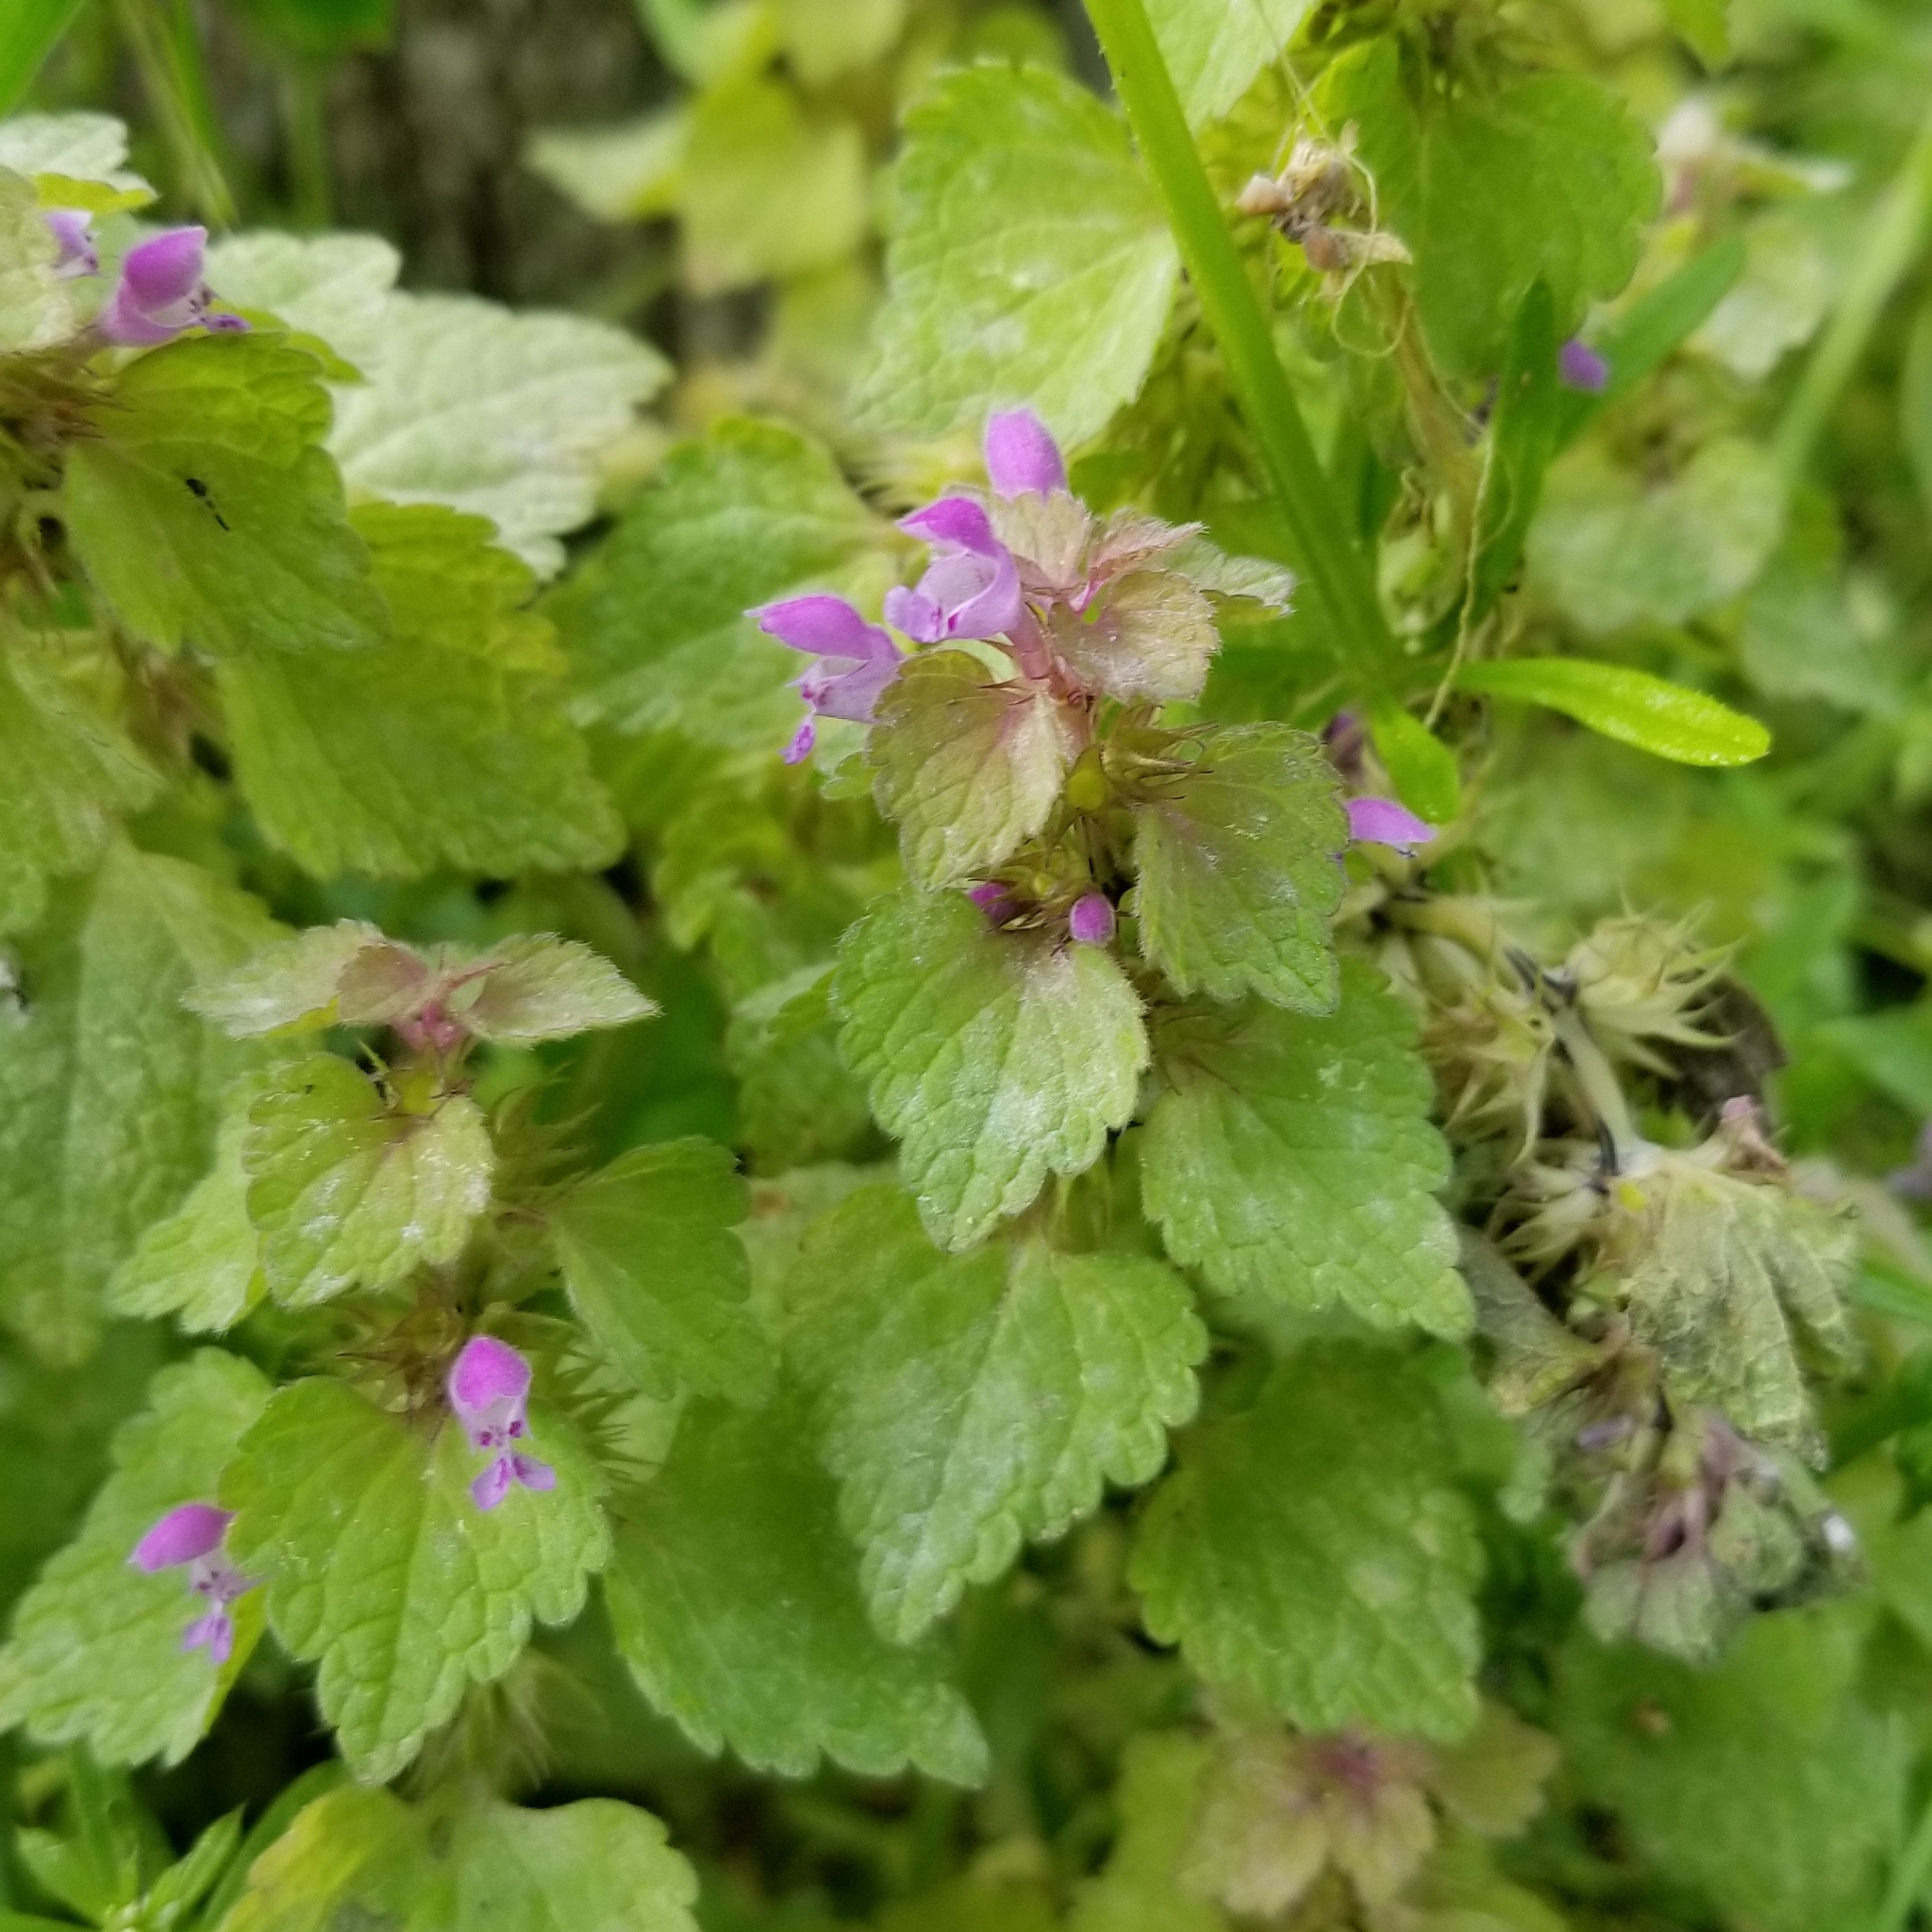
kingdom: Plantae
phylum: Tracheophyta
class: Magnoliopsida
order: Lamiales
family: Lamiaceae
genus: Lamium
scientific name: Lamium purpureum
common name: Red dead-nettle
